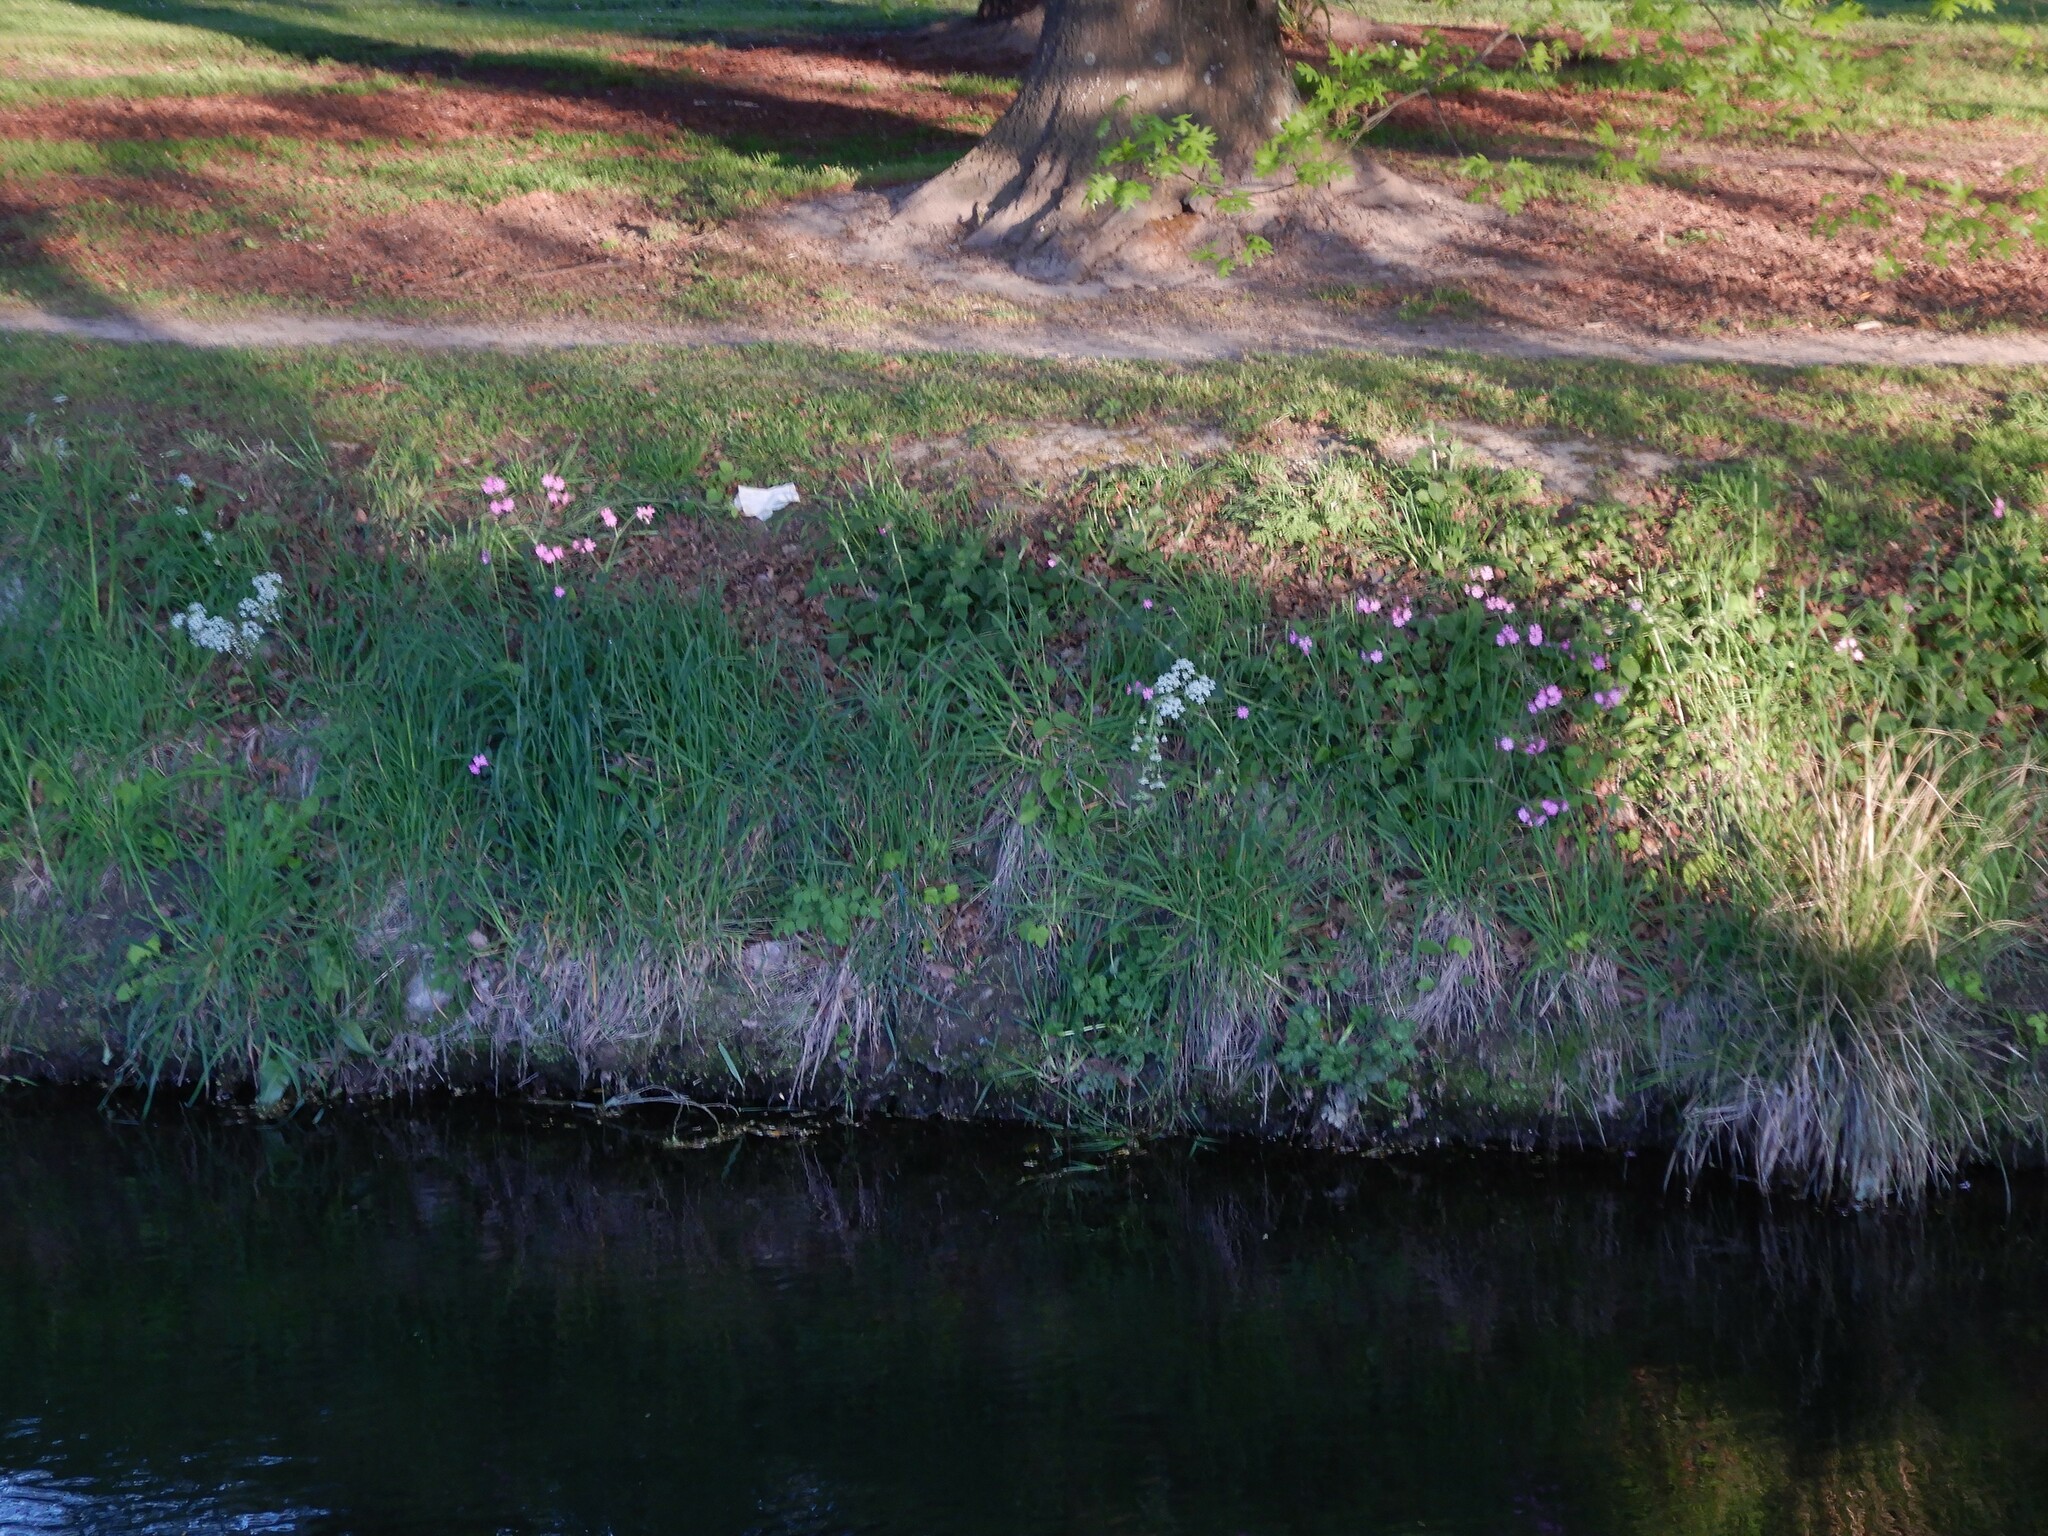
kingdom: Plantae
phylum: Tracheophyta
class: Magnoliopsida
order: Caryophyllales
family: Caryophyllaceae
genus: Silene
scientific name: Silene dioica
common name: Red campion
